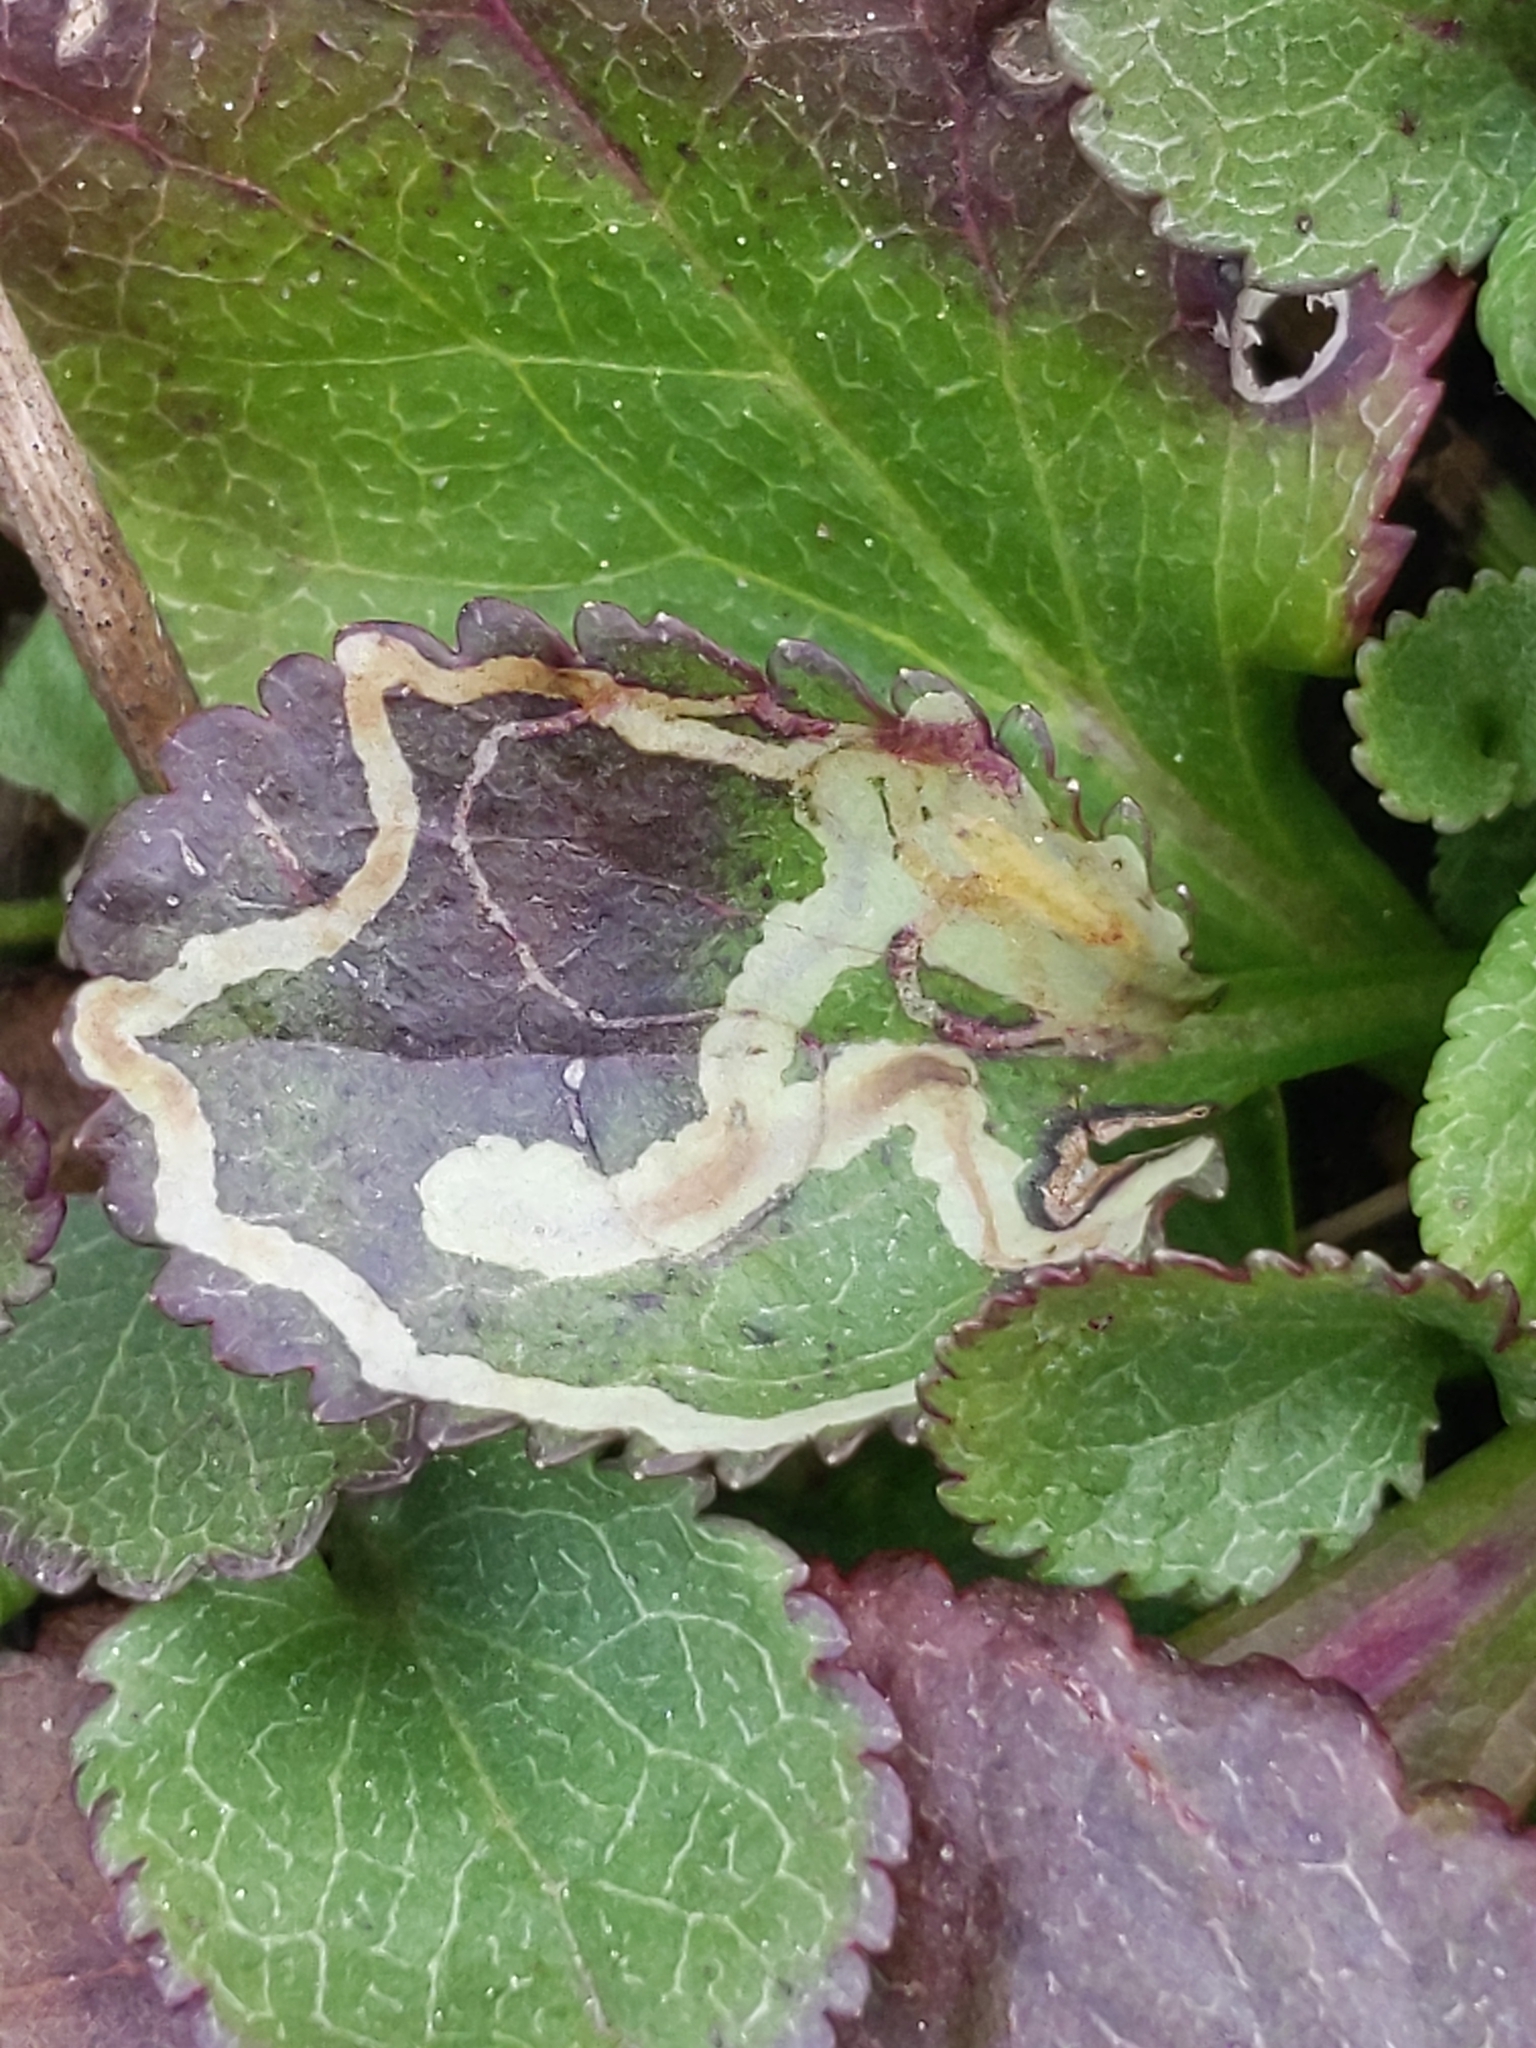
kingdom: Animalia
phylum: Arthropoda
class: Insecta
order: Lepidoptera
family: Gracillariidae
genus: Phyllocnistis
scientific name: Phyllocnistis insignis
